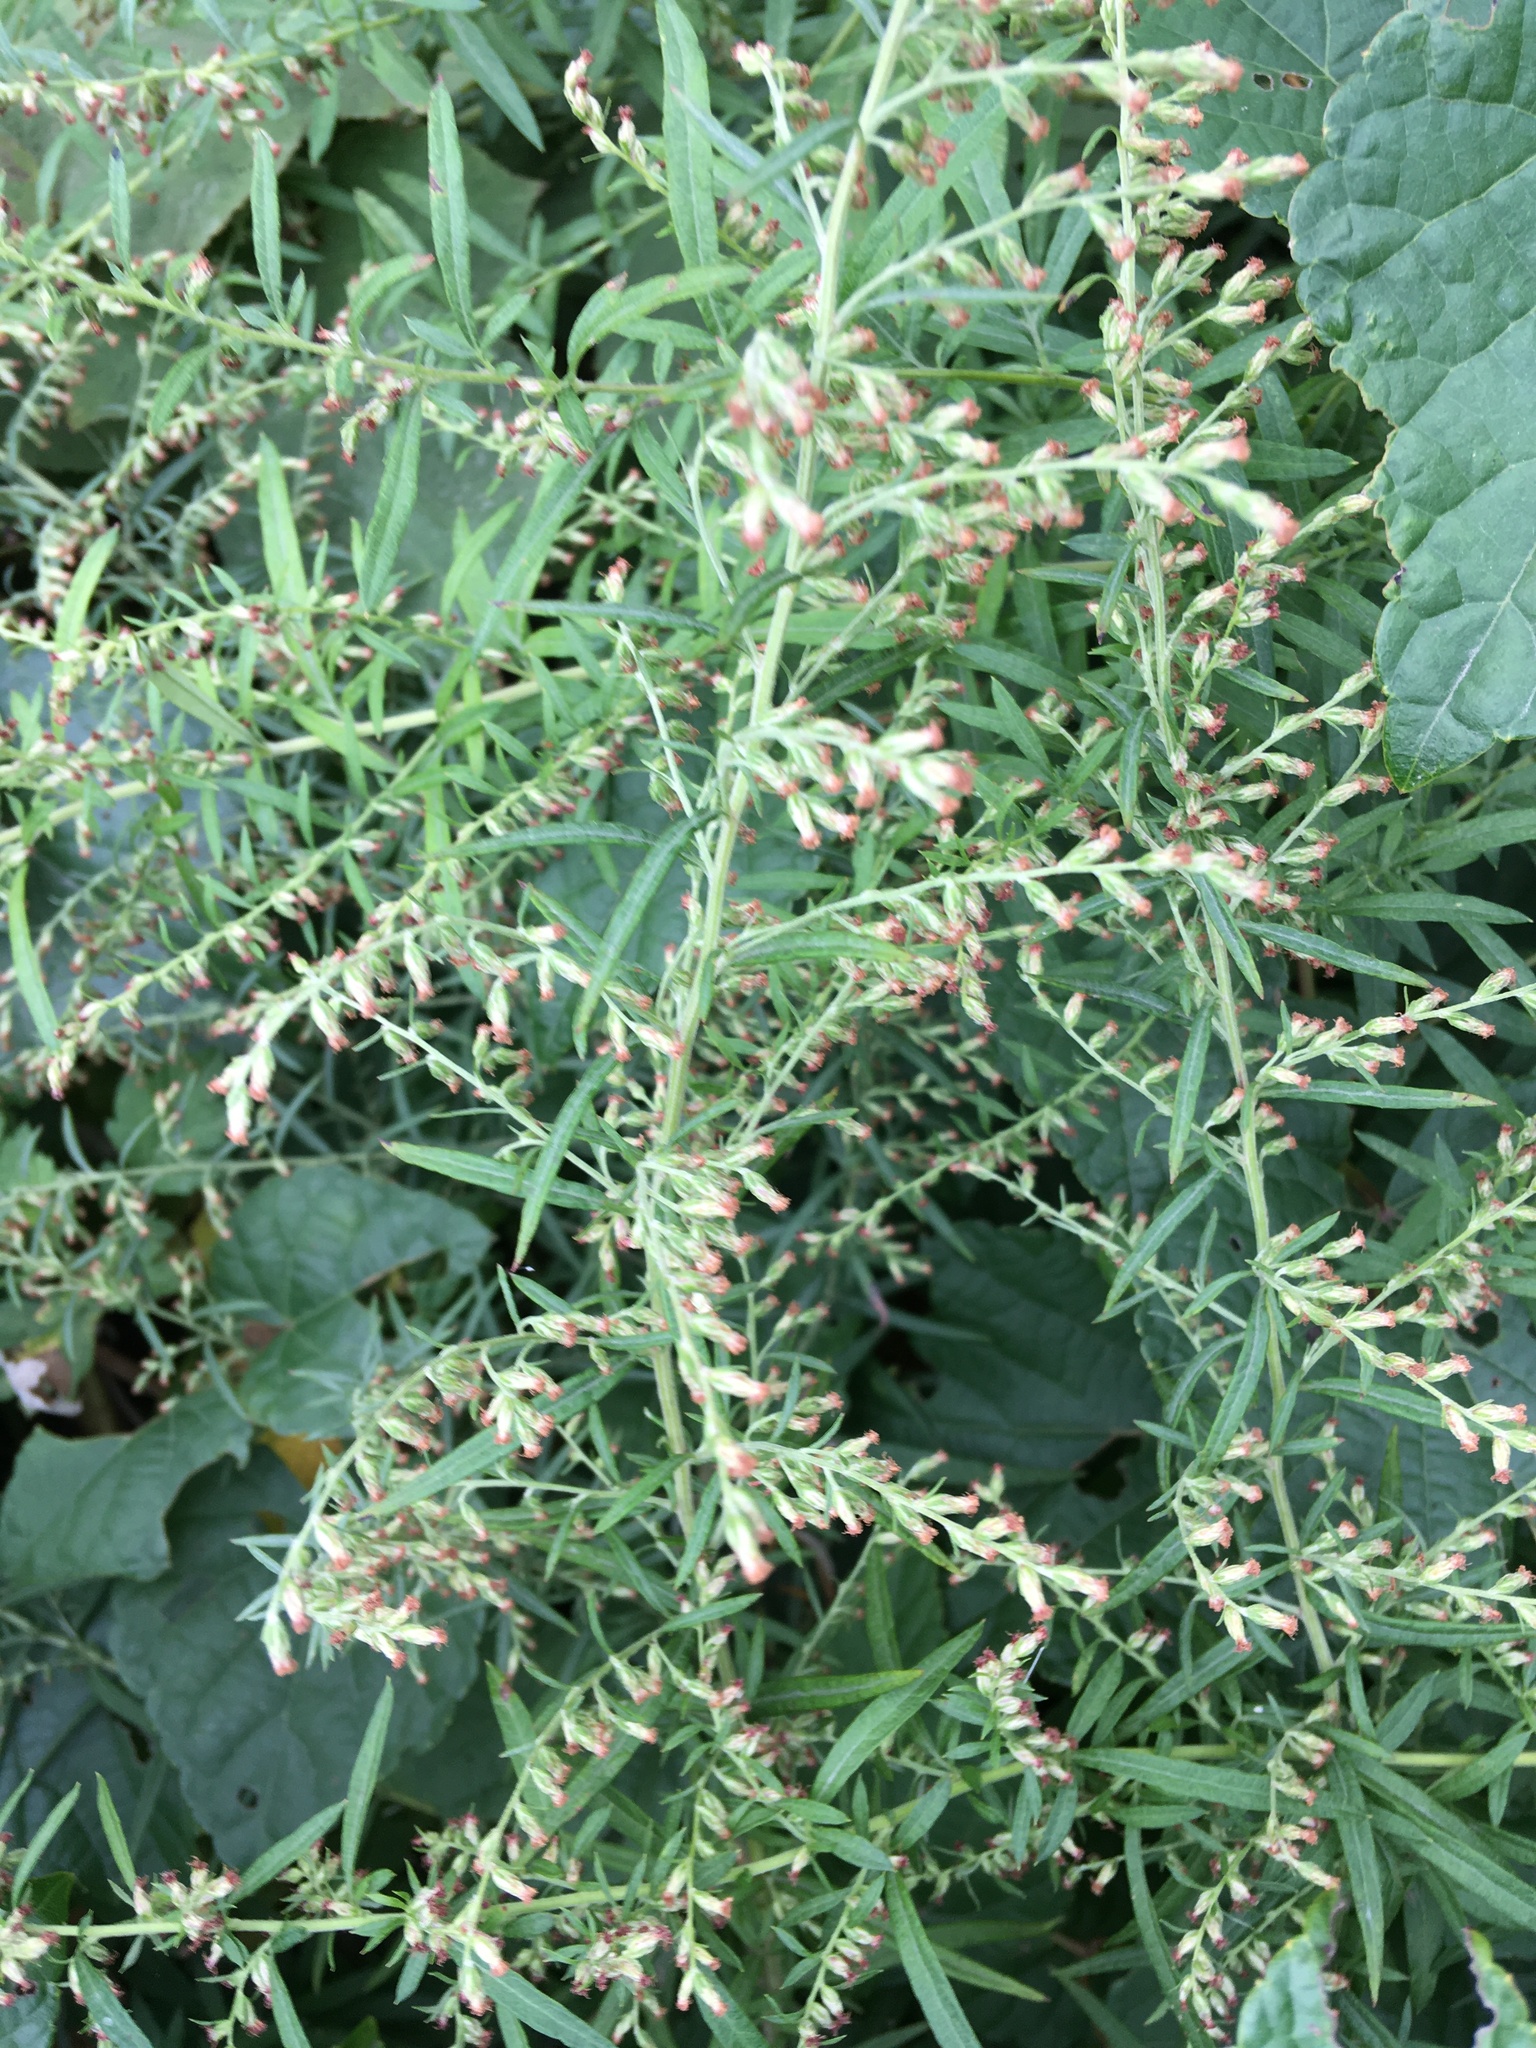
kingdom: Plantae
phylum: Tracheophyta
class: Magnoliopsida
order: Asterales
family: Asteraceae
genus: Artemisia
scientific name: Artemisia vulgaris
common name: Mugwort
